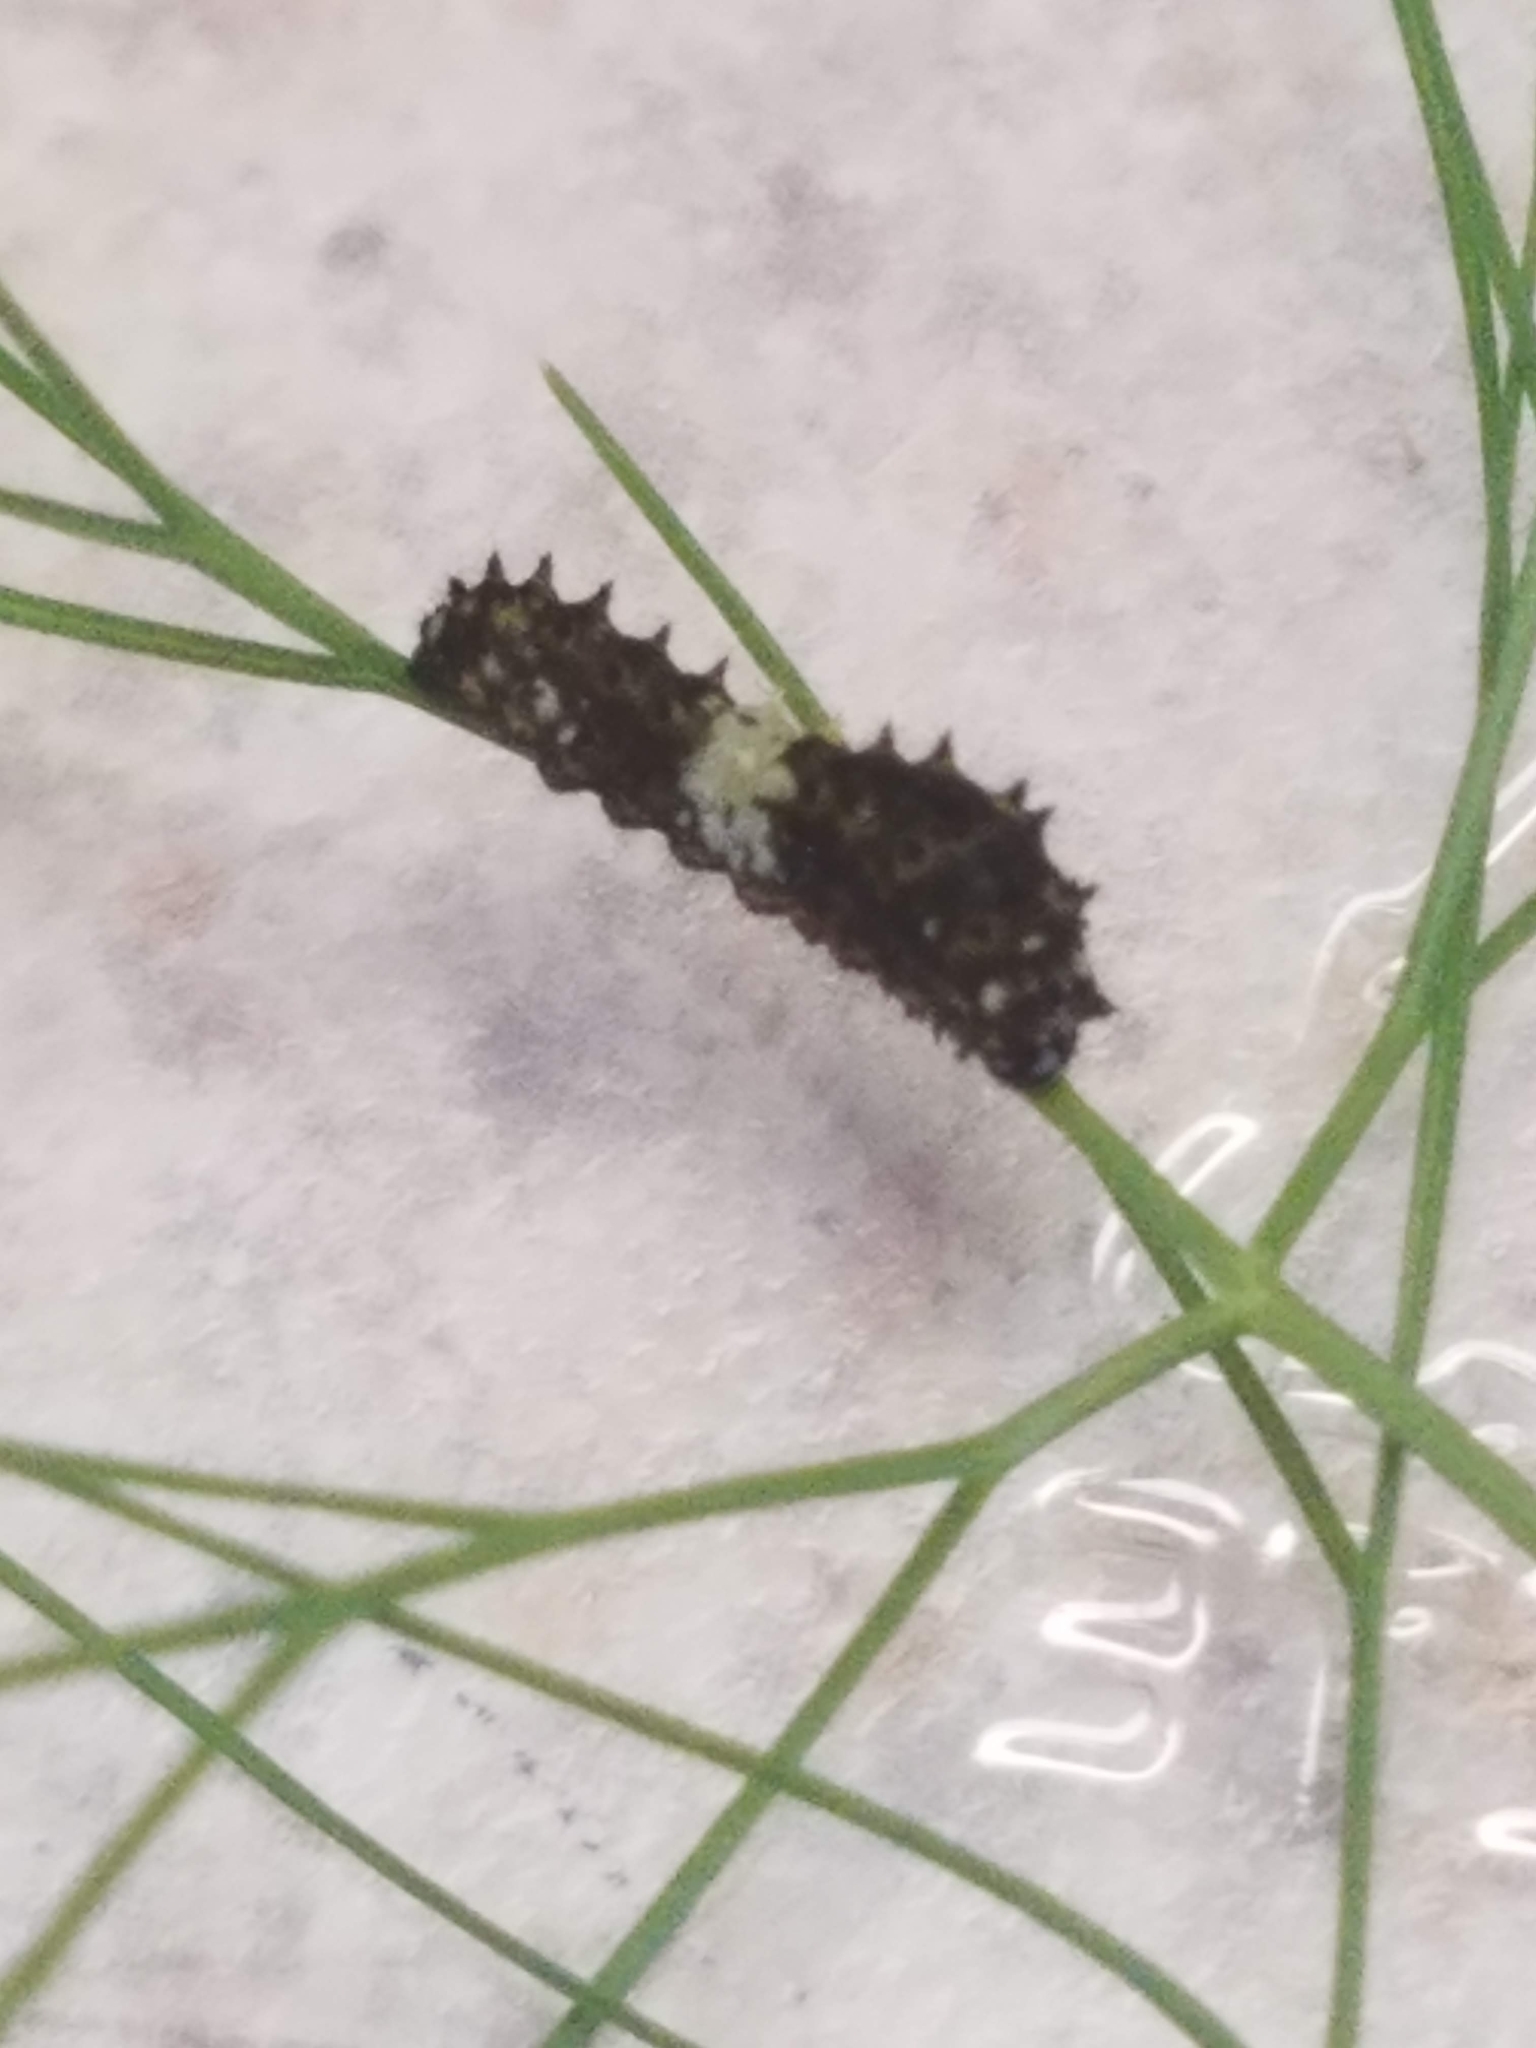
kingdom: Animalia
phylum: Arthropoda
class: Insecta
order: Lepidoptera
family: Papilionidae
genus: Papilio
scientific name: Papilio polyxenes
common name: Black swallowtail
